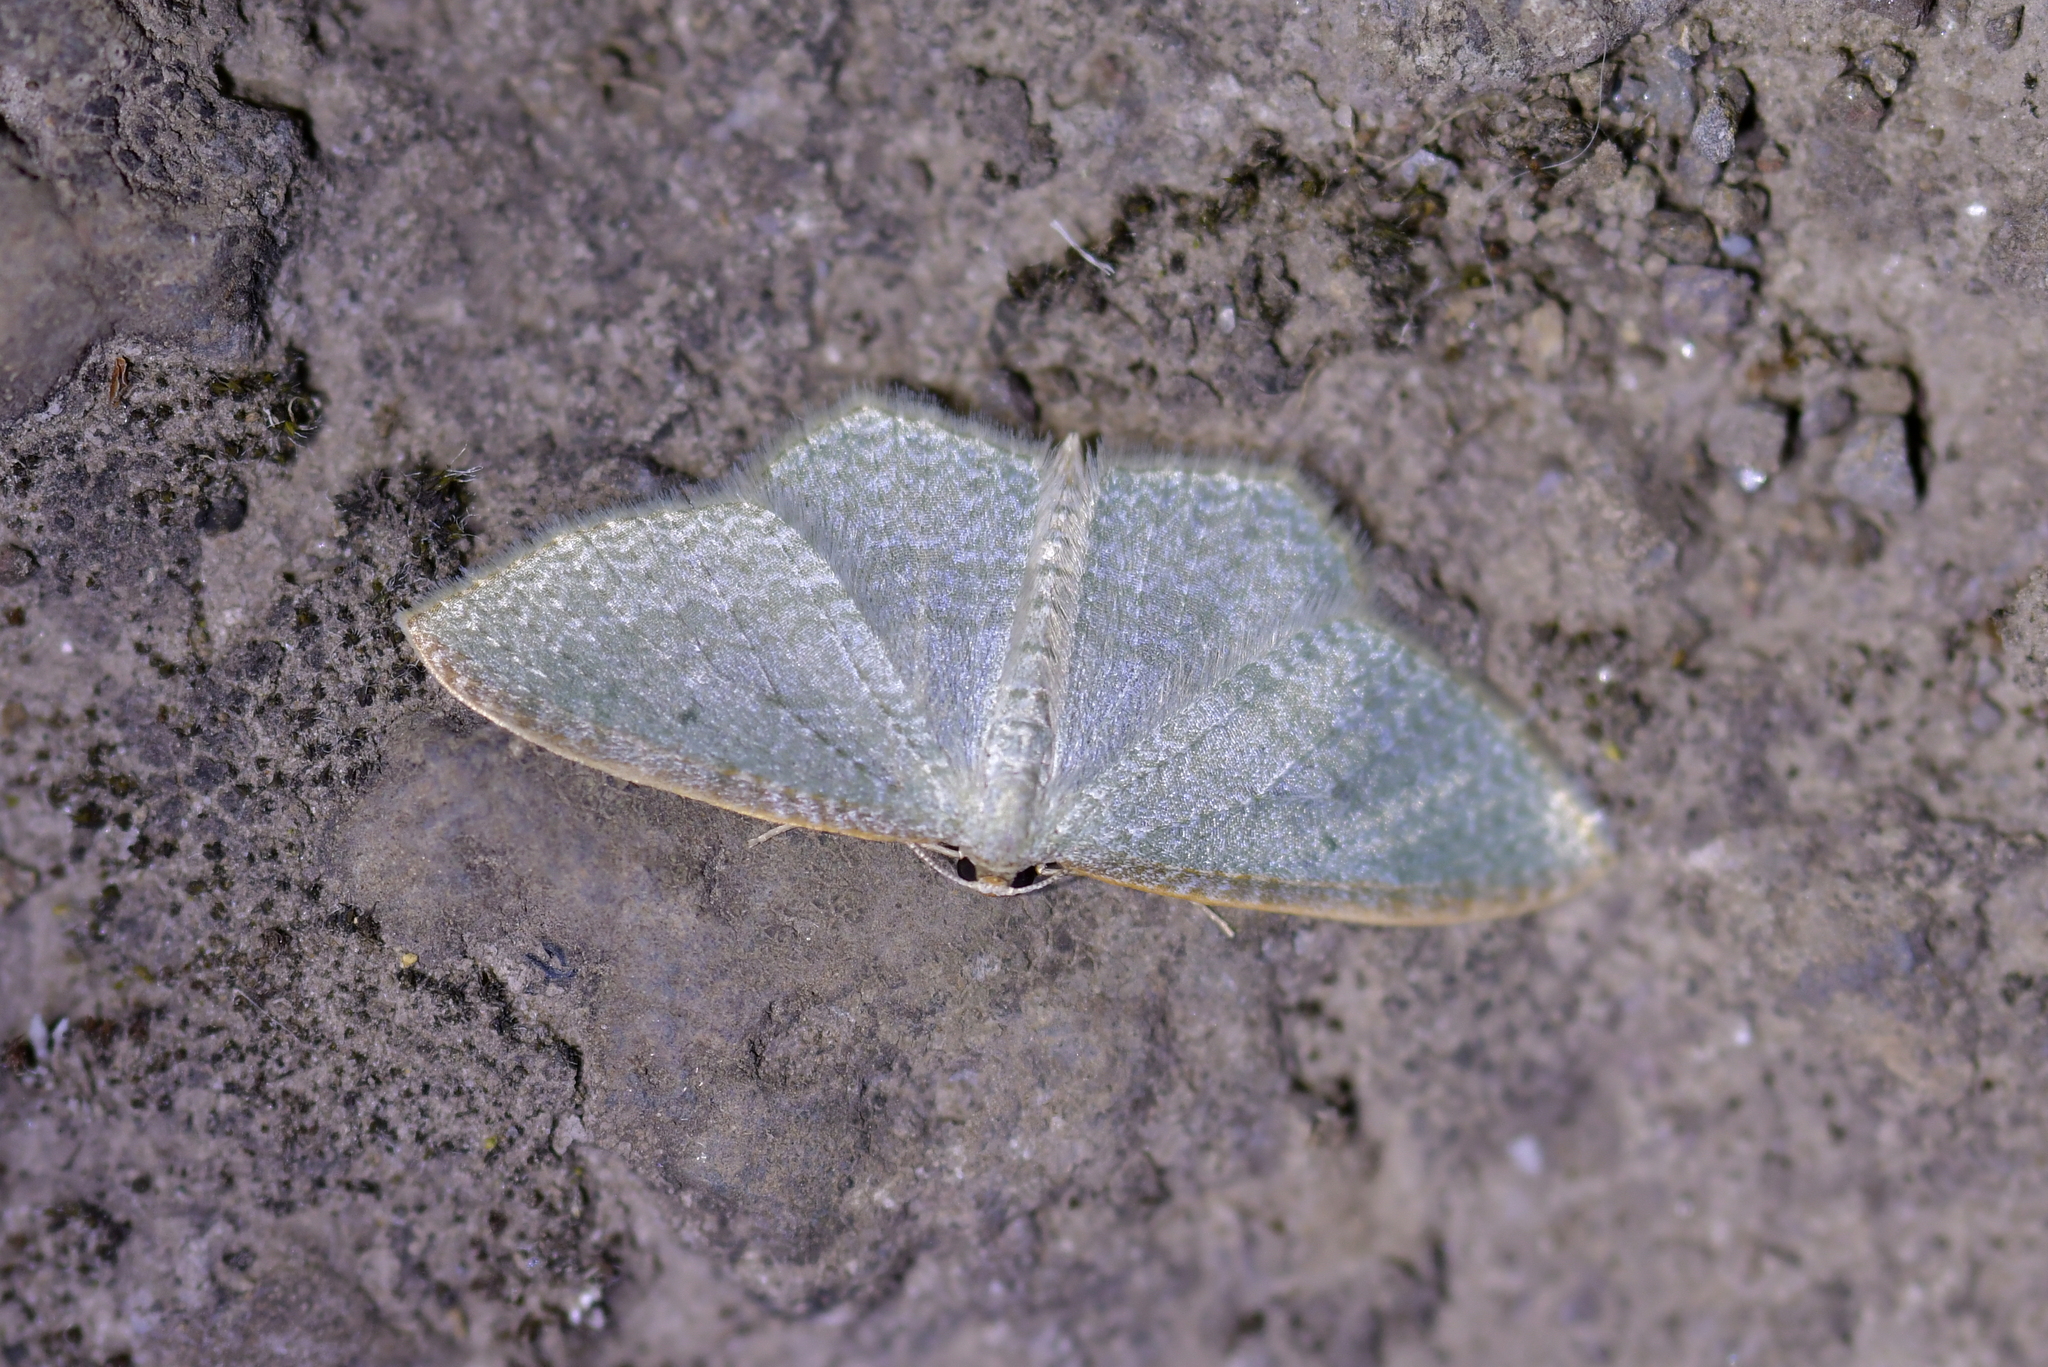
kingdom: Animalia
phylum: Arthropoda
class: Insecta
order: Lepidoptera
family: Geometridae
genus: Poecilasthena
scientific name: Poecilasthena pulchraria
